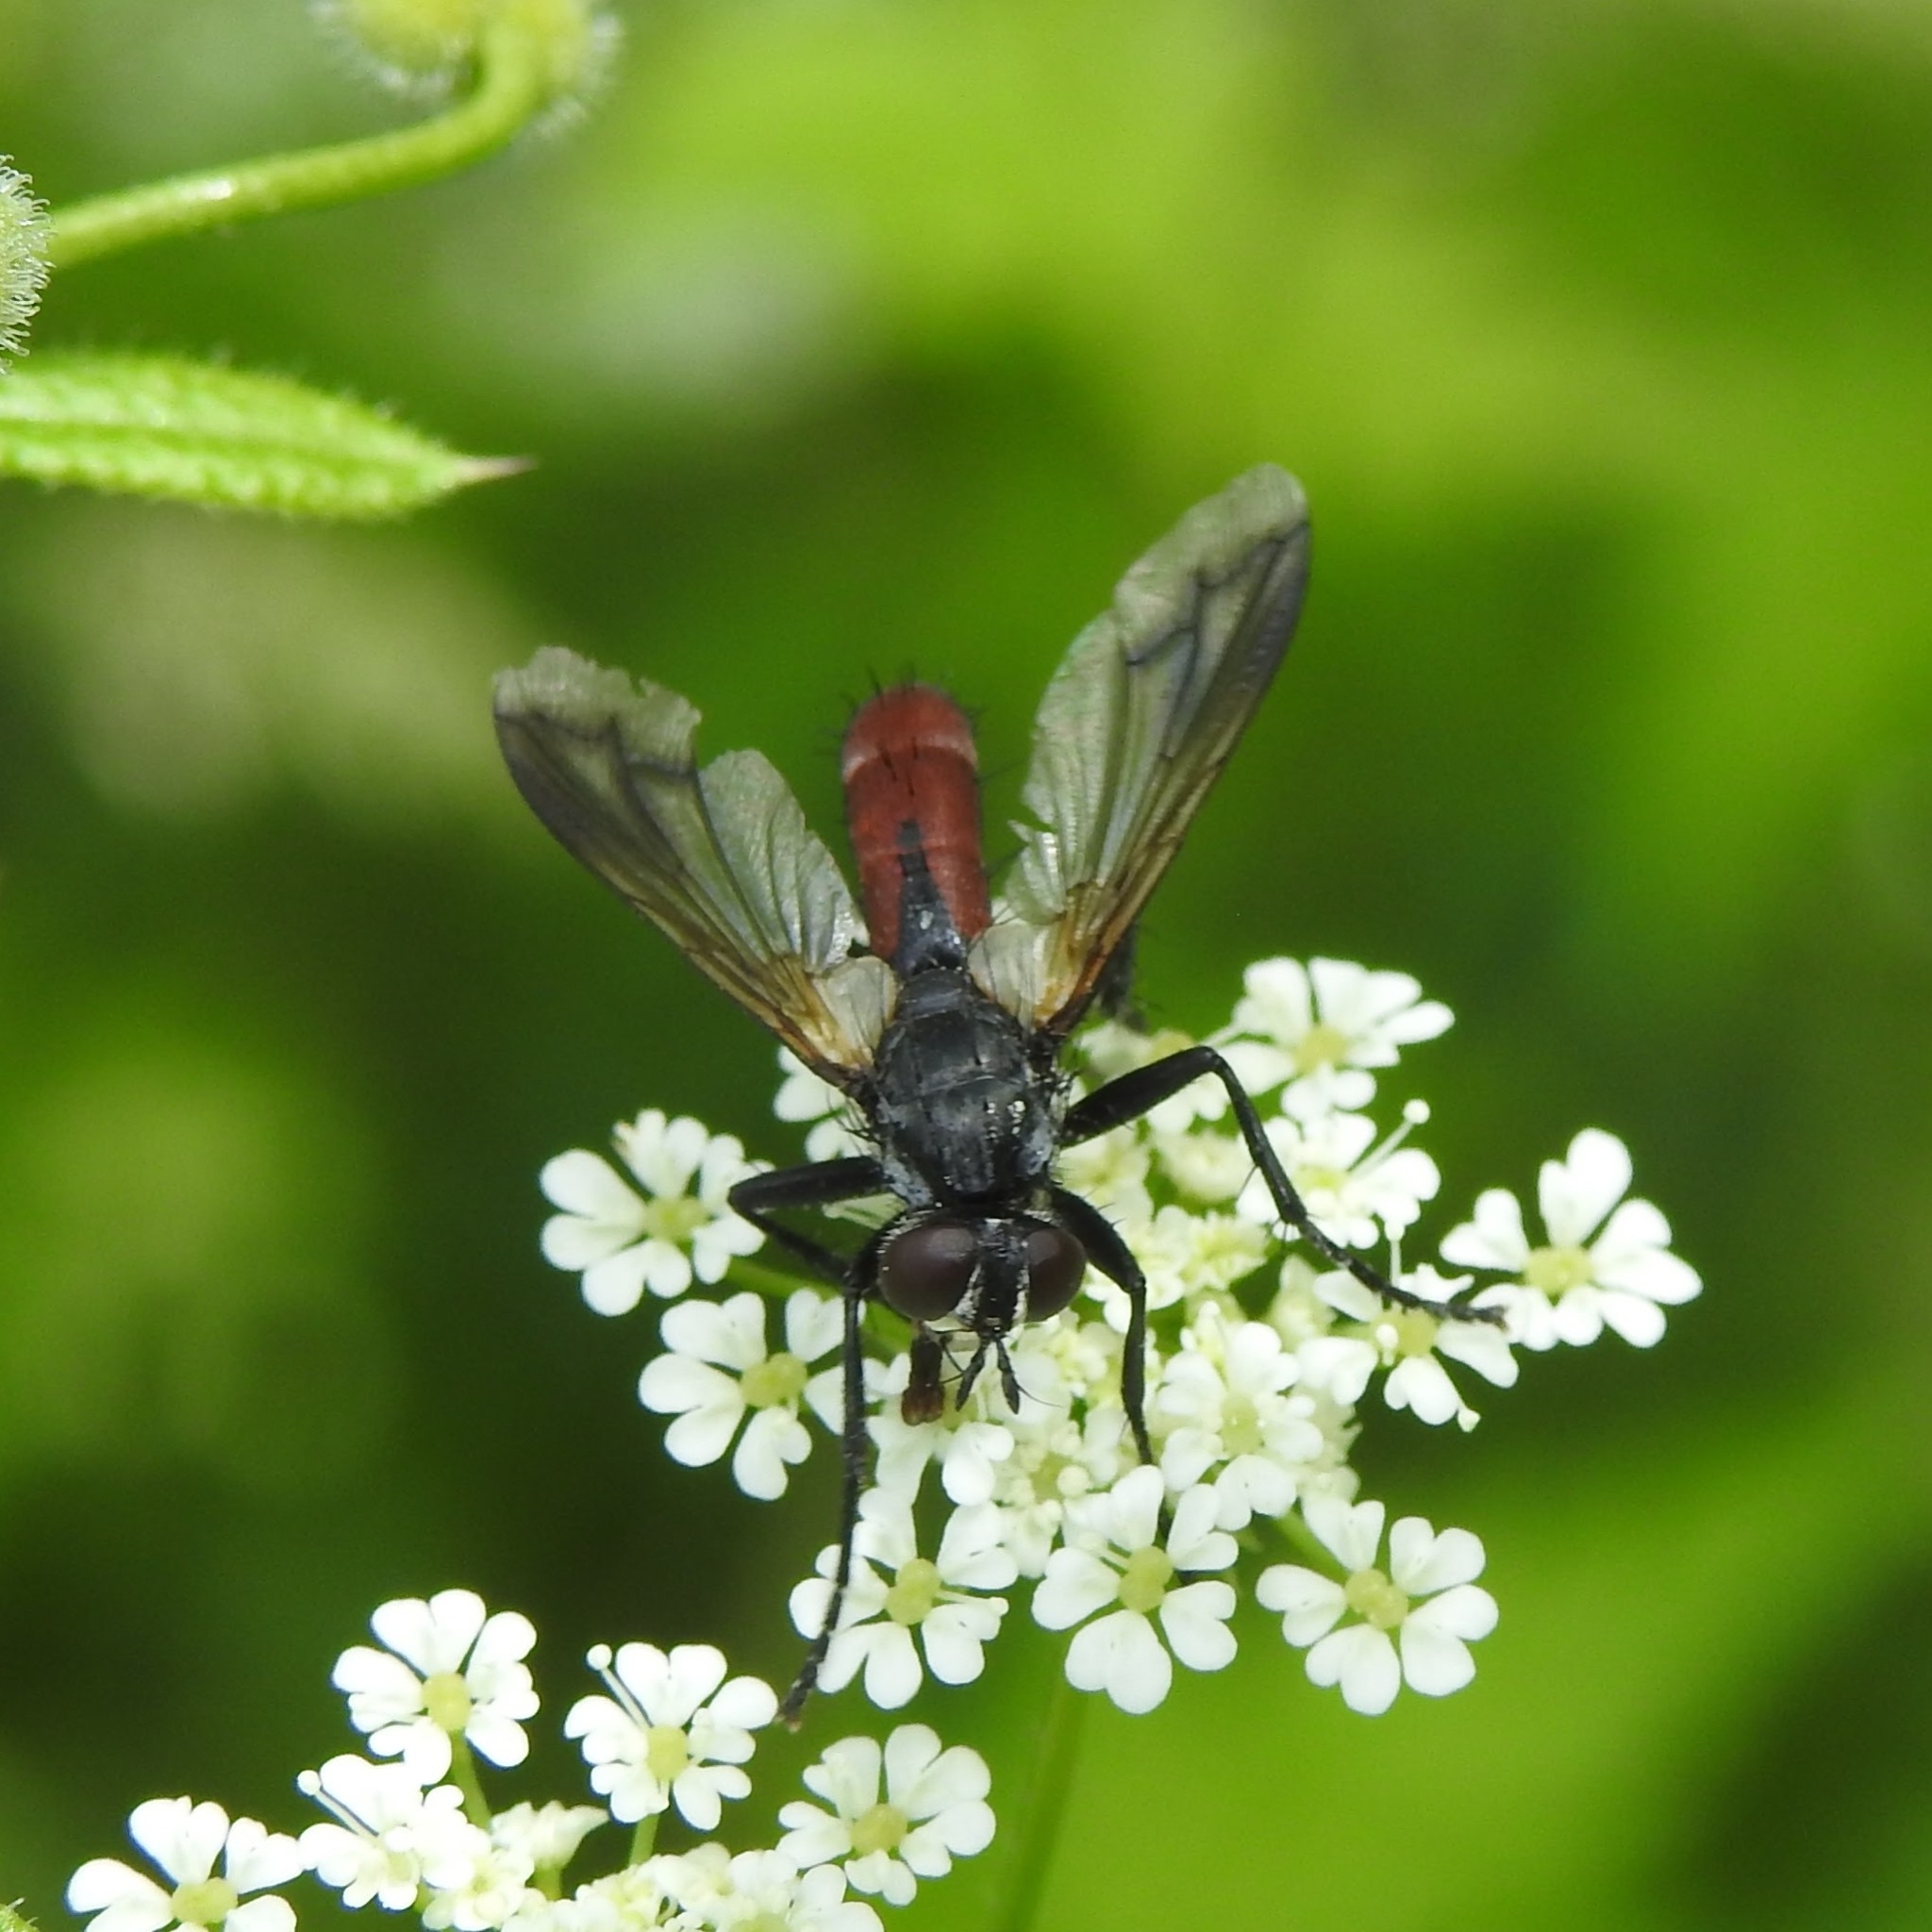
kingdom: Animalia
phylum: Arthropoda
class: Insecta
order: Diptera
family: Tachinidae
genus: Cylindromyia
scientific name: Cylindromyia bicolor
